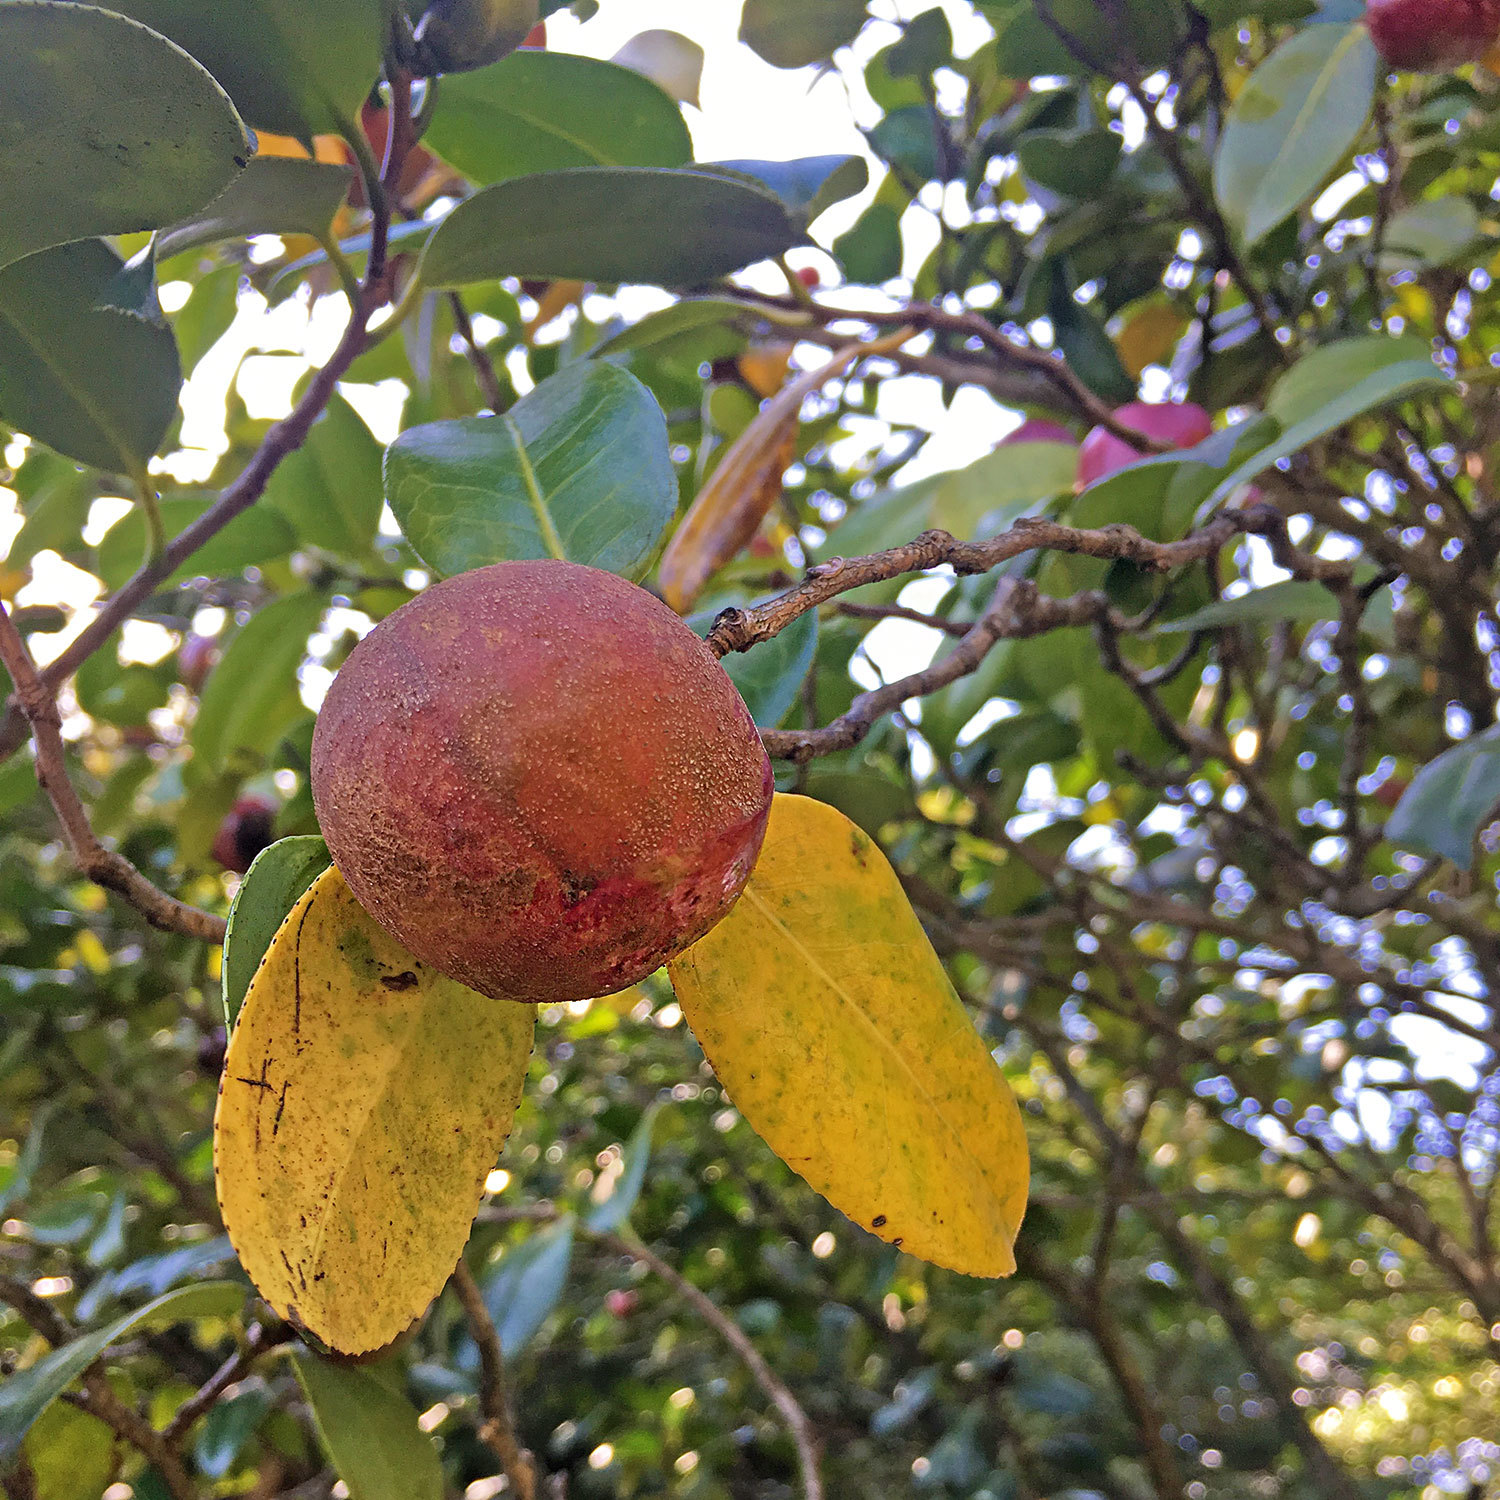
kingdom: Plantae
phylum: Tracheophyta
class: Magnoliopsida
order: Ericales
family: Theaceae
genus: Camellia
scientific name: Camellia japonica
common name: Camellia
